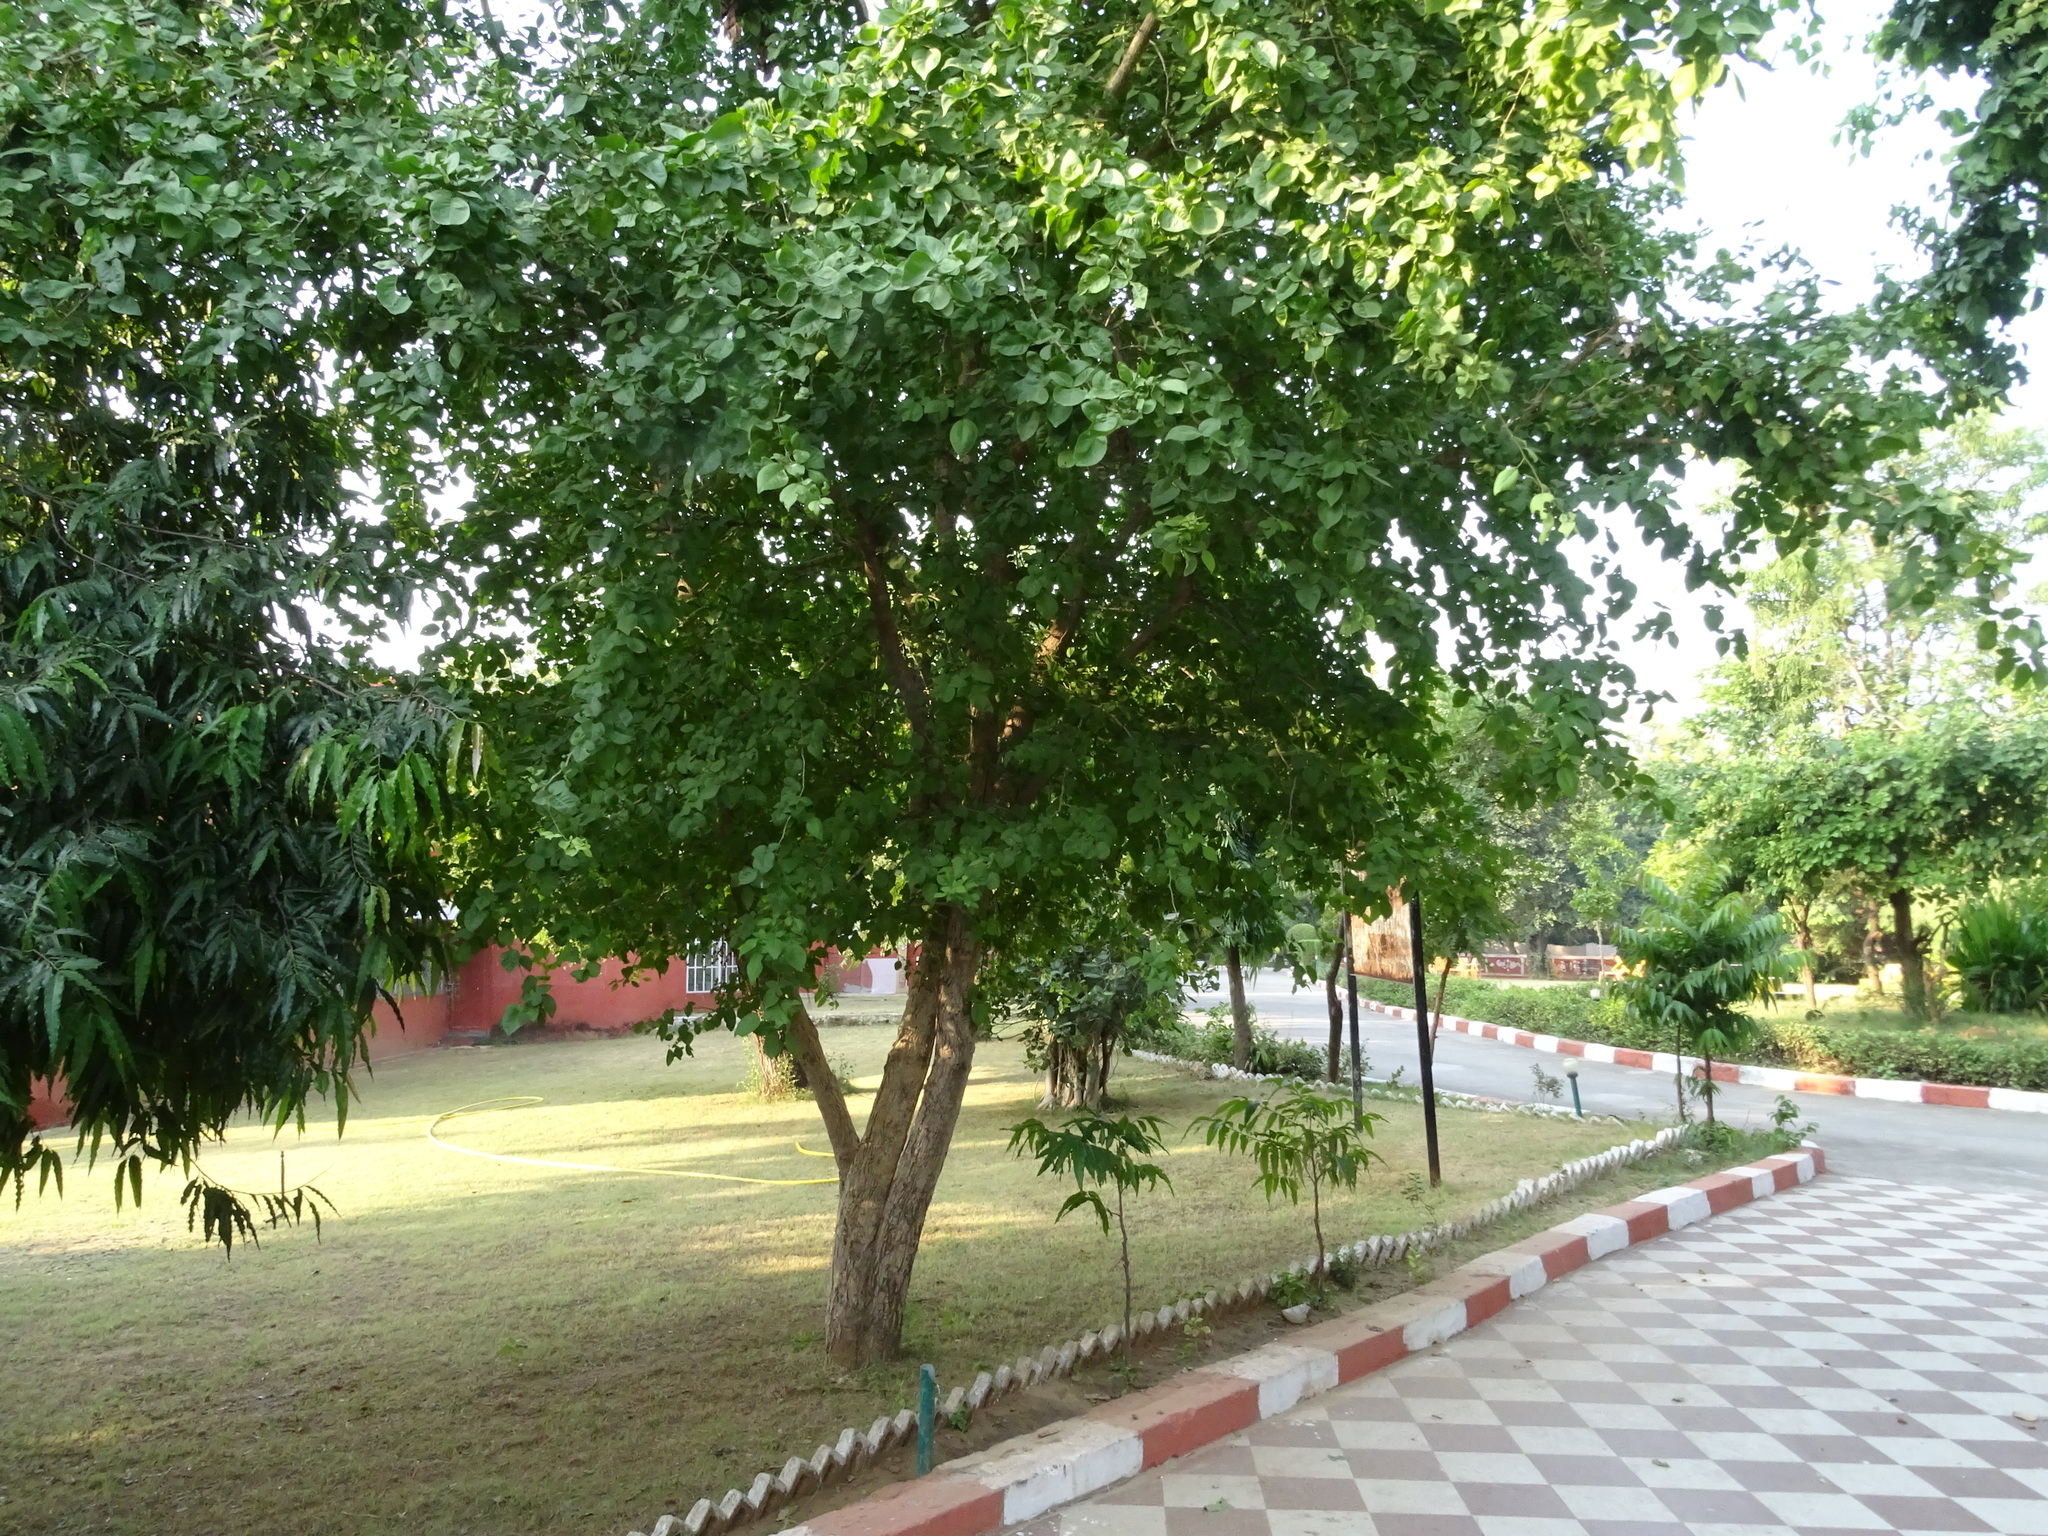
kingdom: Plantae
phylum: Tracheophyta
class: Magnoliopsida
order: Sapindales
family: Rutaceae
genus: Aegle
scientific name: Aegle marmelos
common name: Bael
